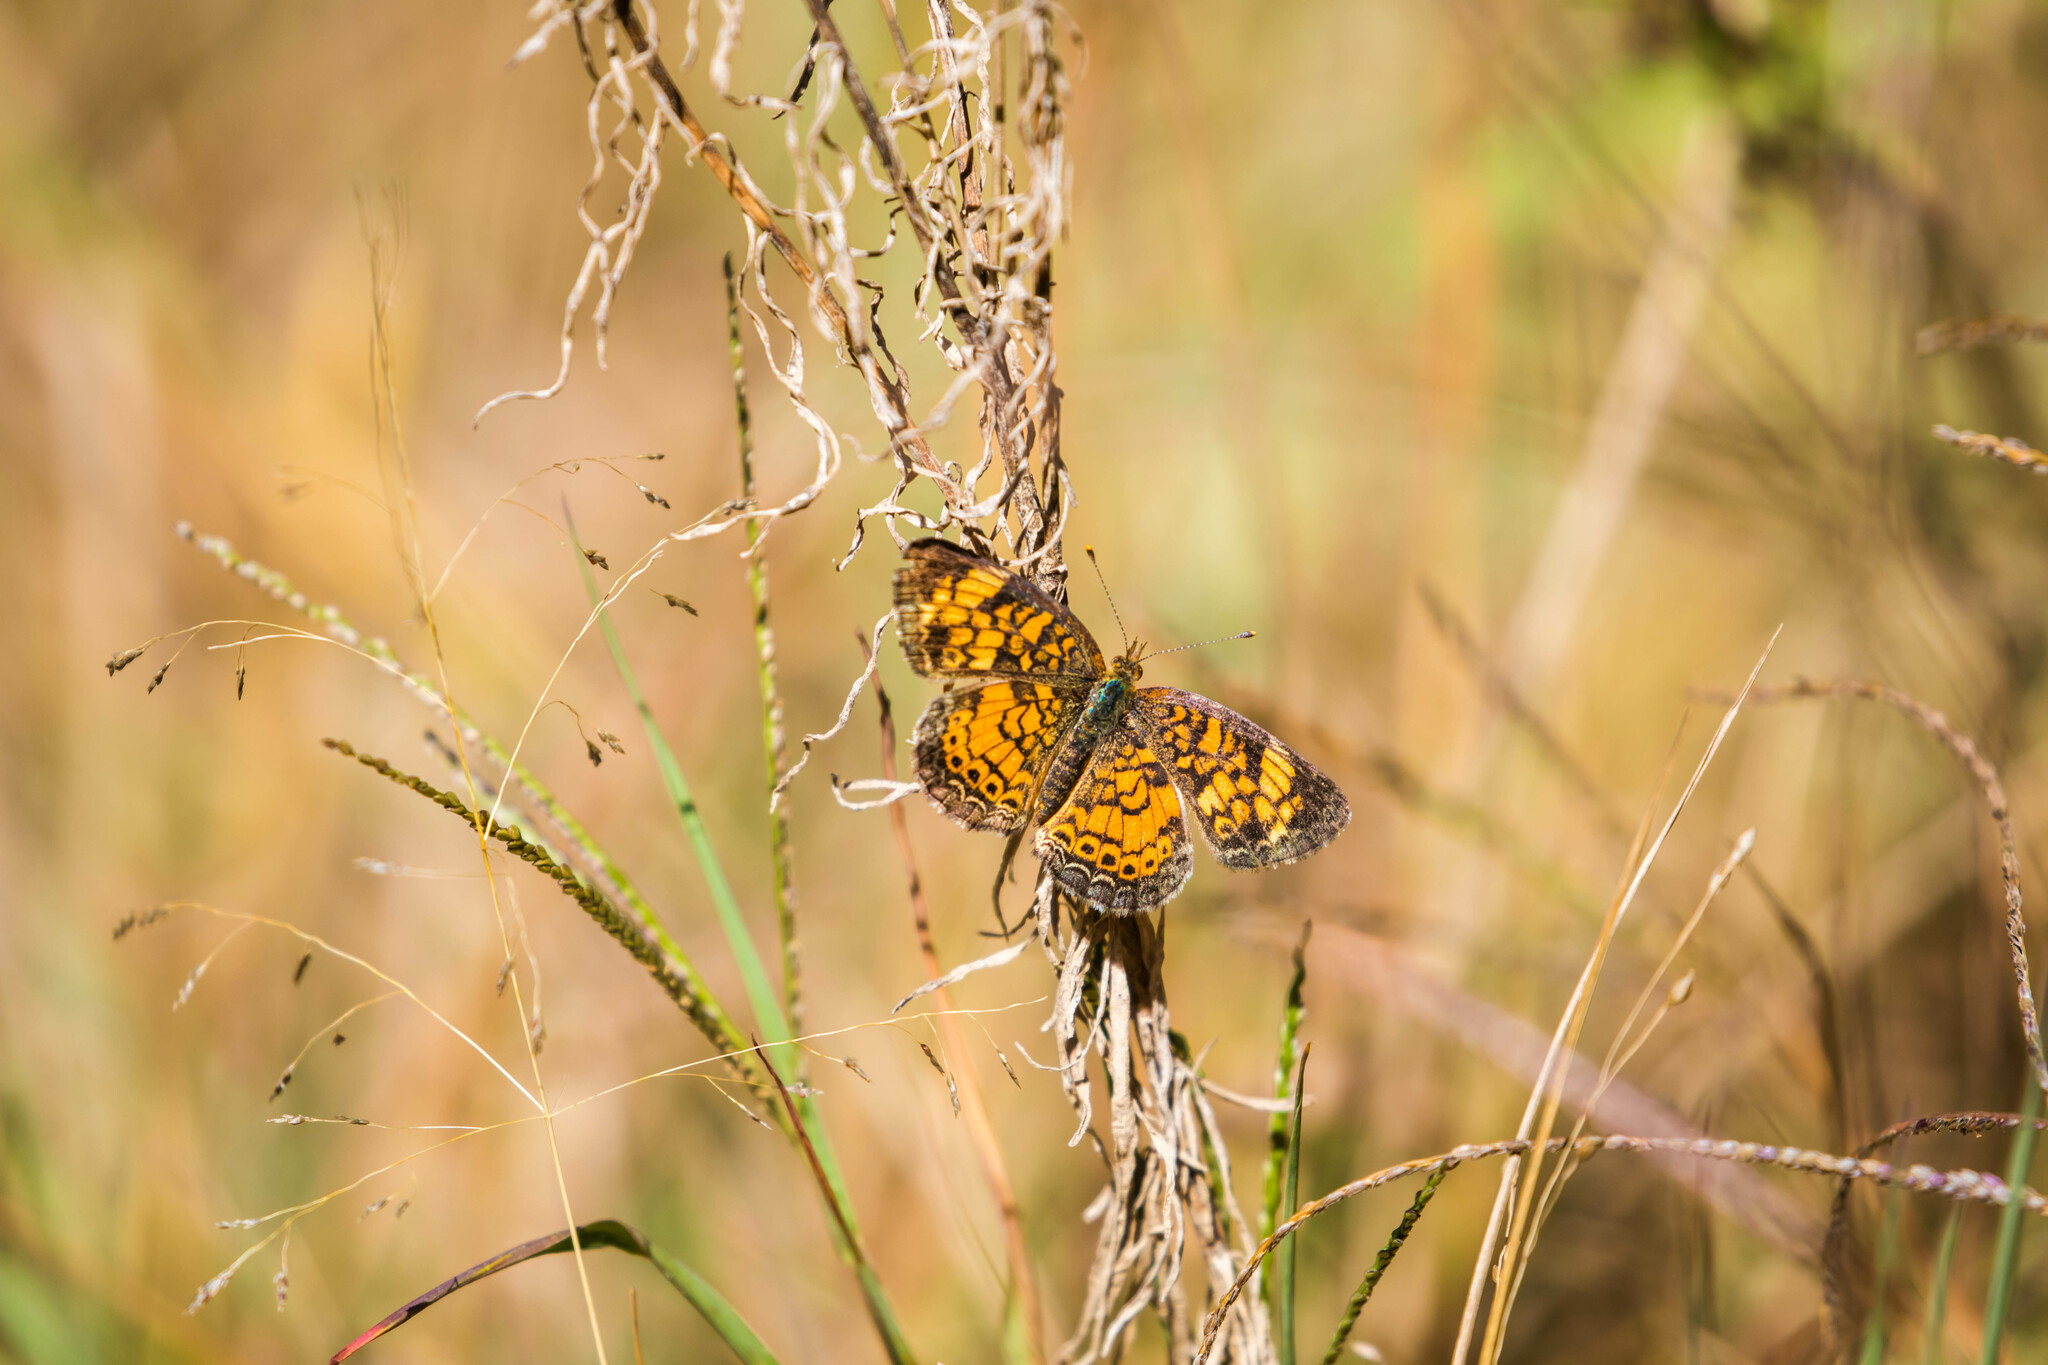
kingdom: Animalia
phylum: Arthropoda
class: Insecta
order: Lepidoptera
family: Nymphalidae
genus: Phyciodes
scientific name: Phyciodes tharos
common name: Pearl crescent
